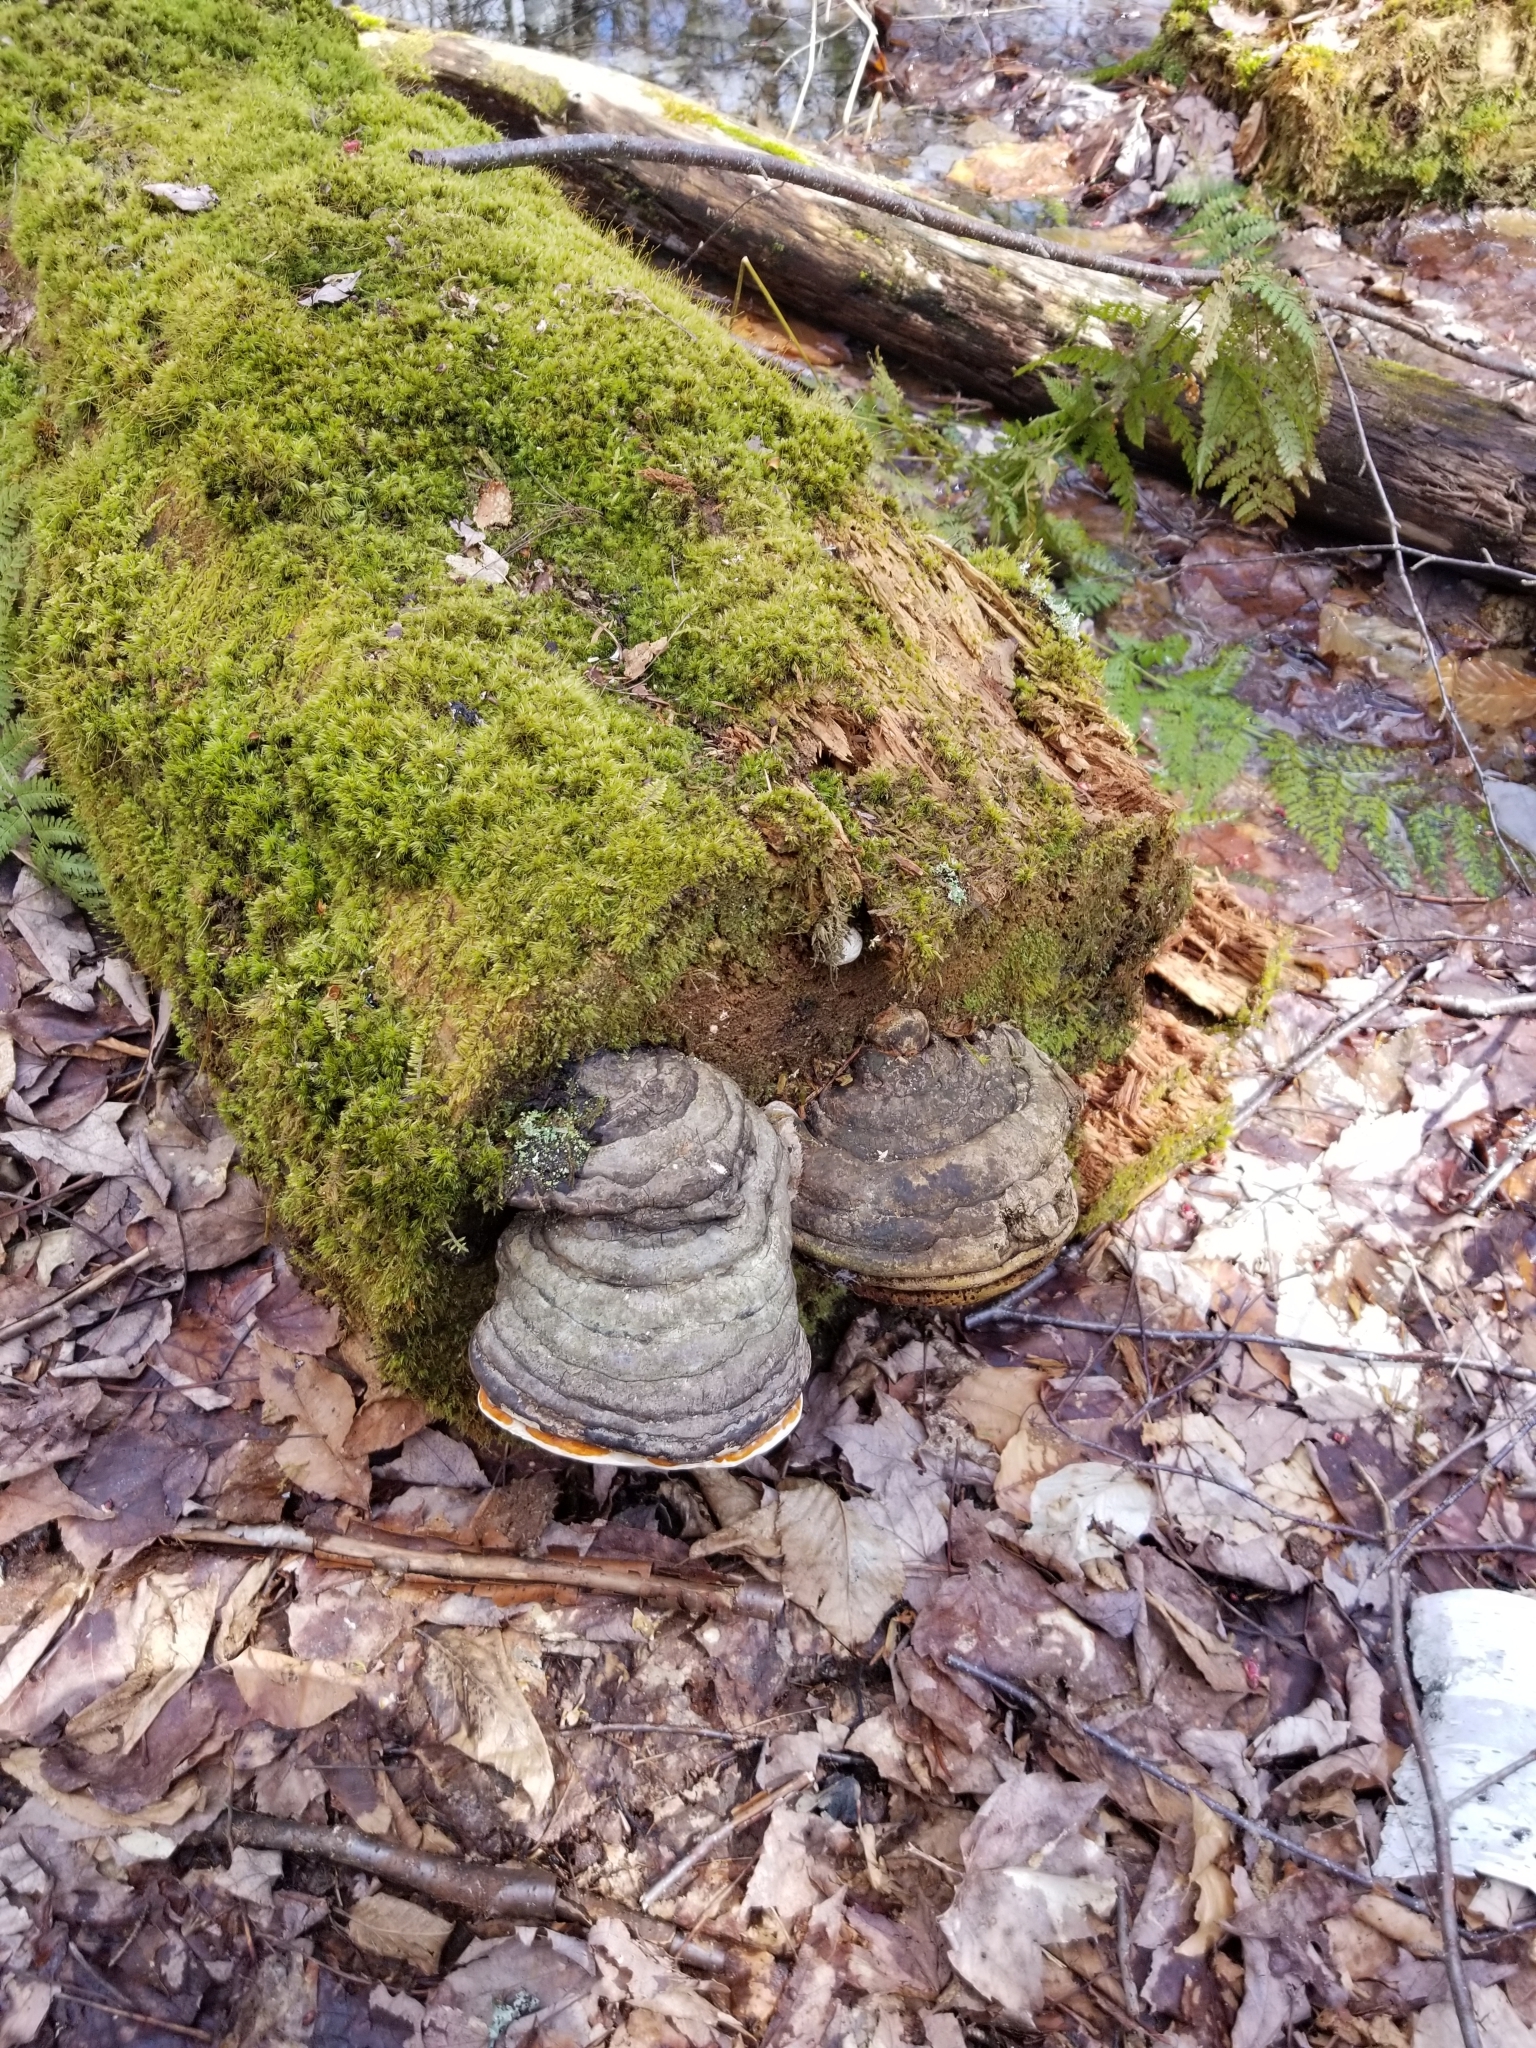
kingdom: Fungi
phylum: Basidiomycota
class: Agaricomycetes
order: Polyporales
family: Fomitopsidaceae
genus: Fomitopsis
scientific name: Fomitopsis mounceae
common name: Northern red belt
